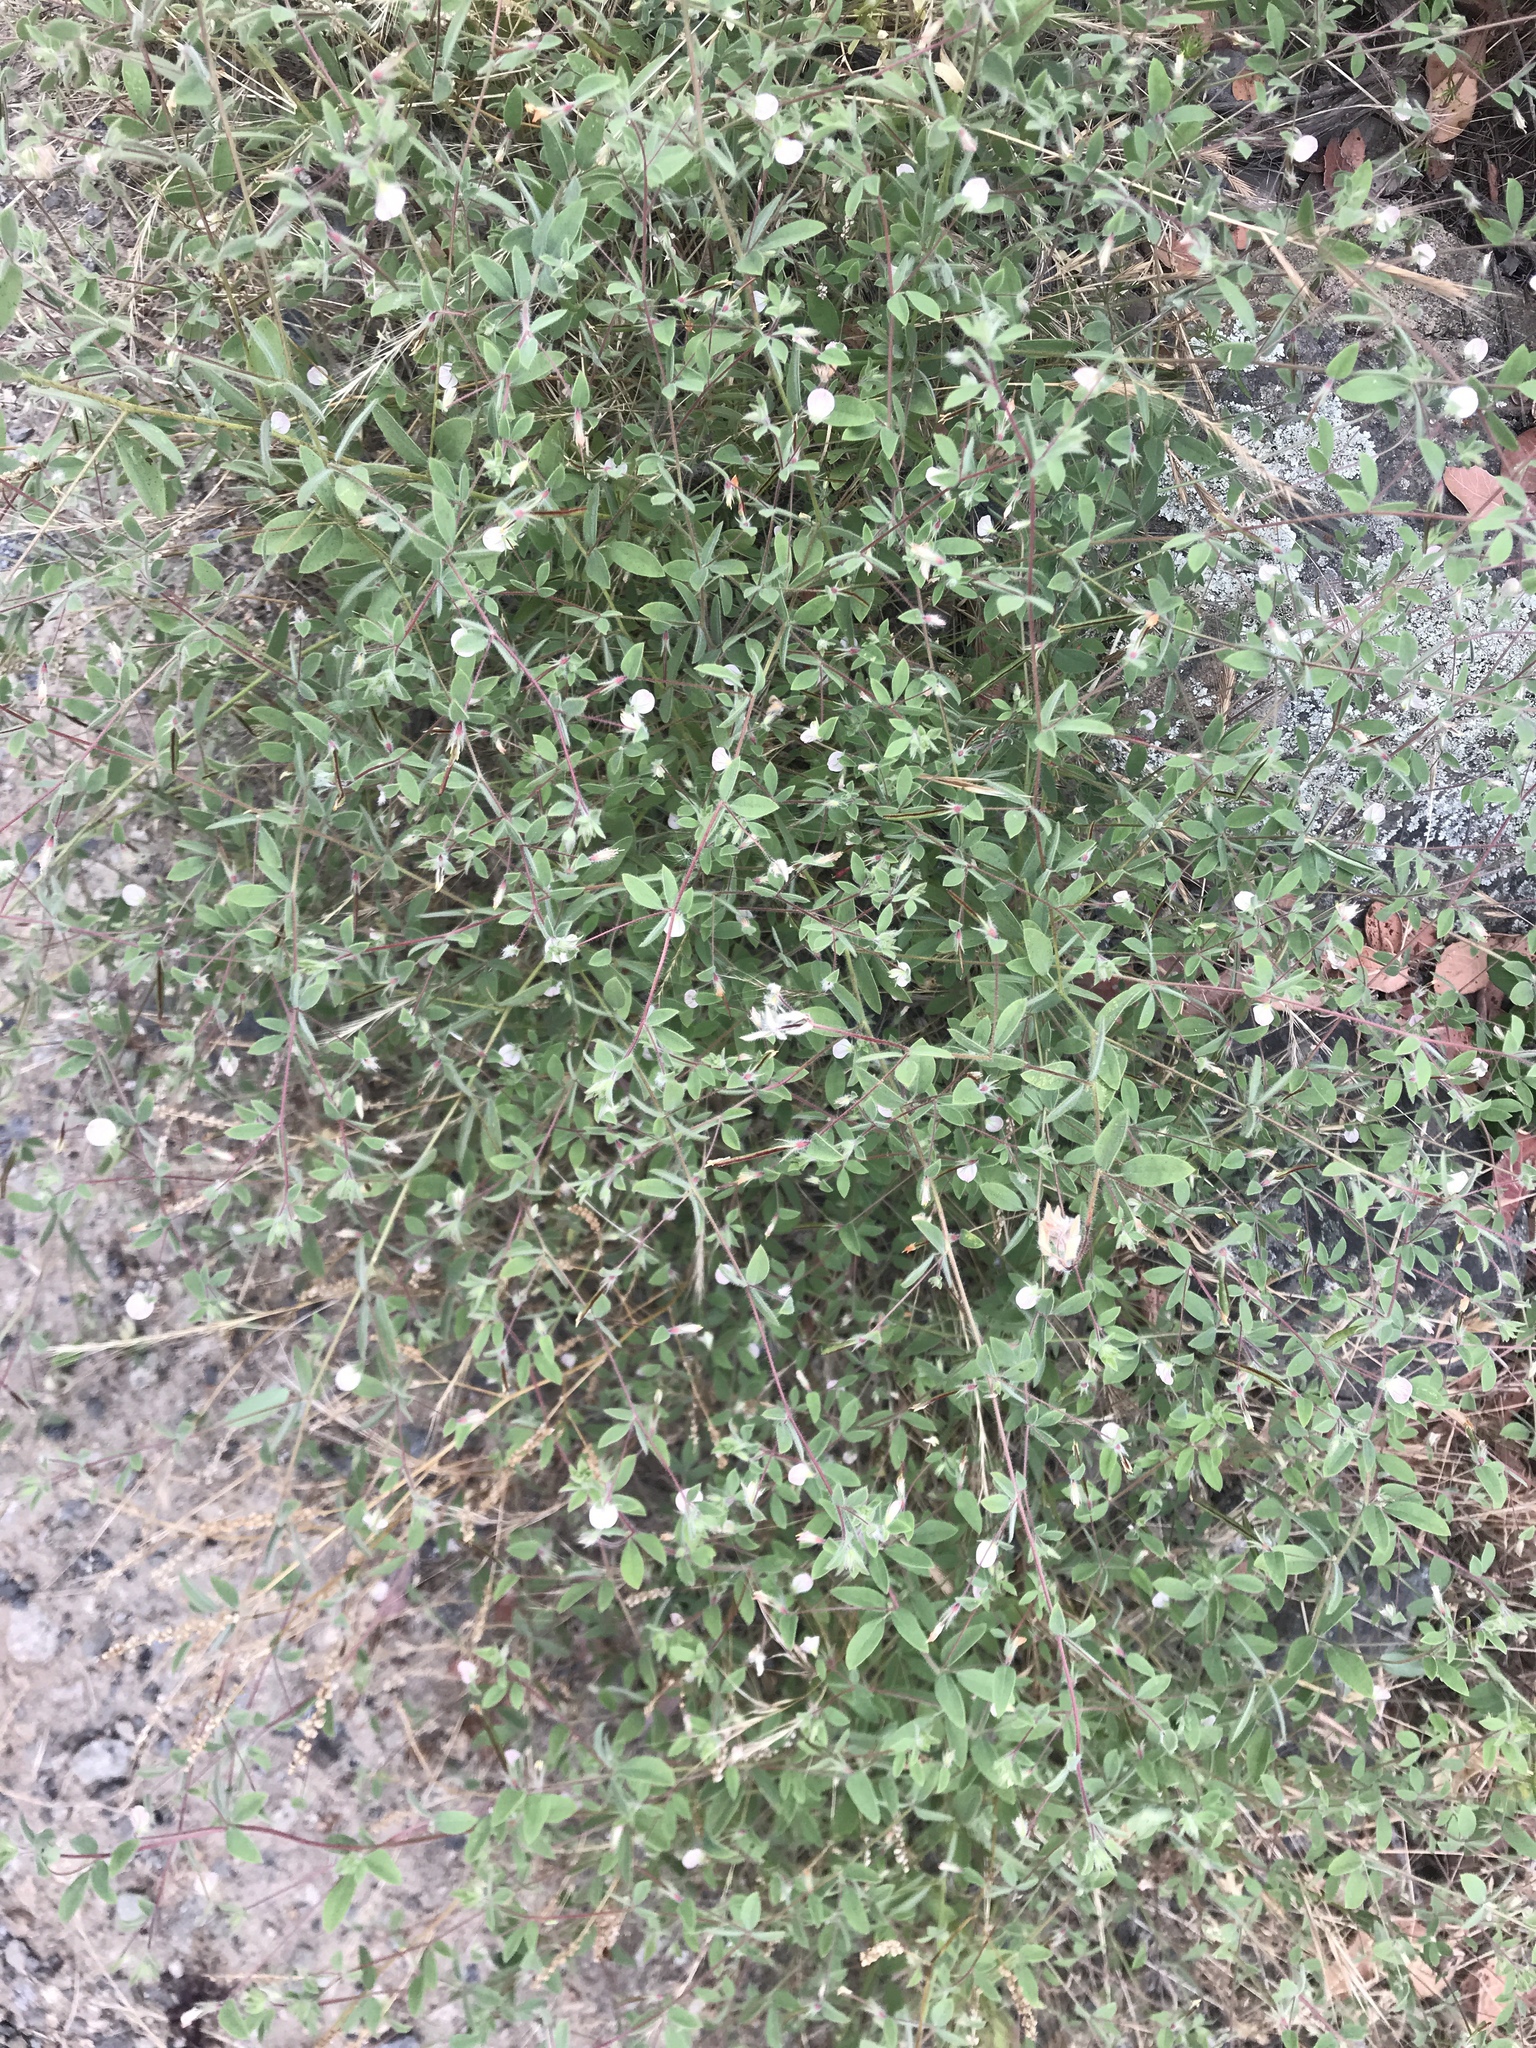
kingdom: Plantae
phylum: Tracheophyta
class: Magnoliopsida
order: Fabales
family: Fabaceae
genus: Acmispon
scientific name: Acmispon americanus
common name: American bird's-foot trefoil
